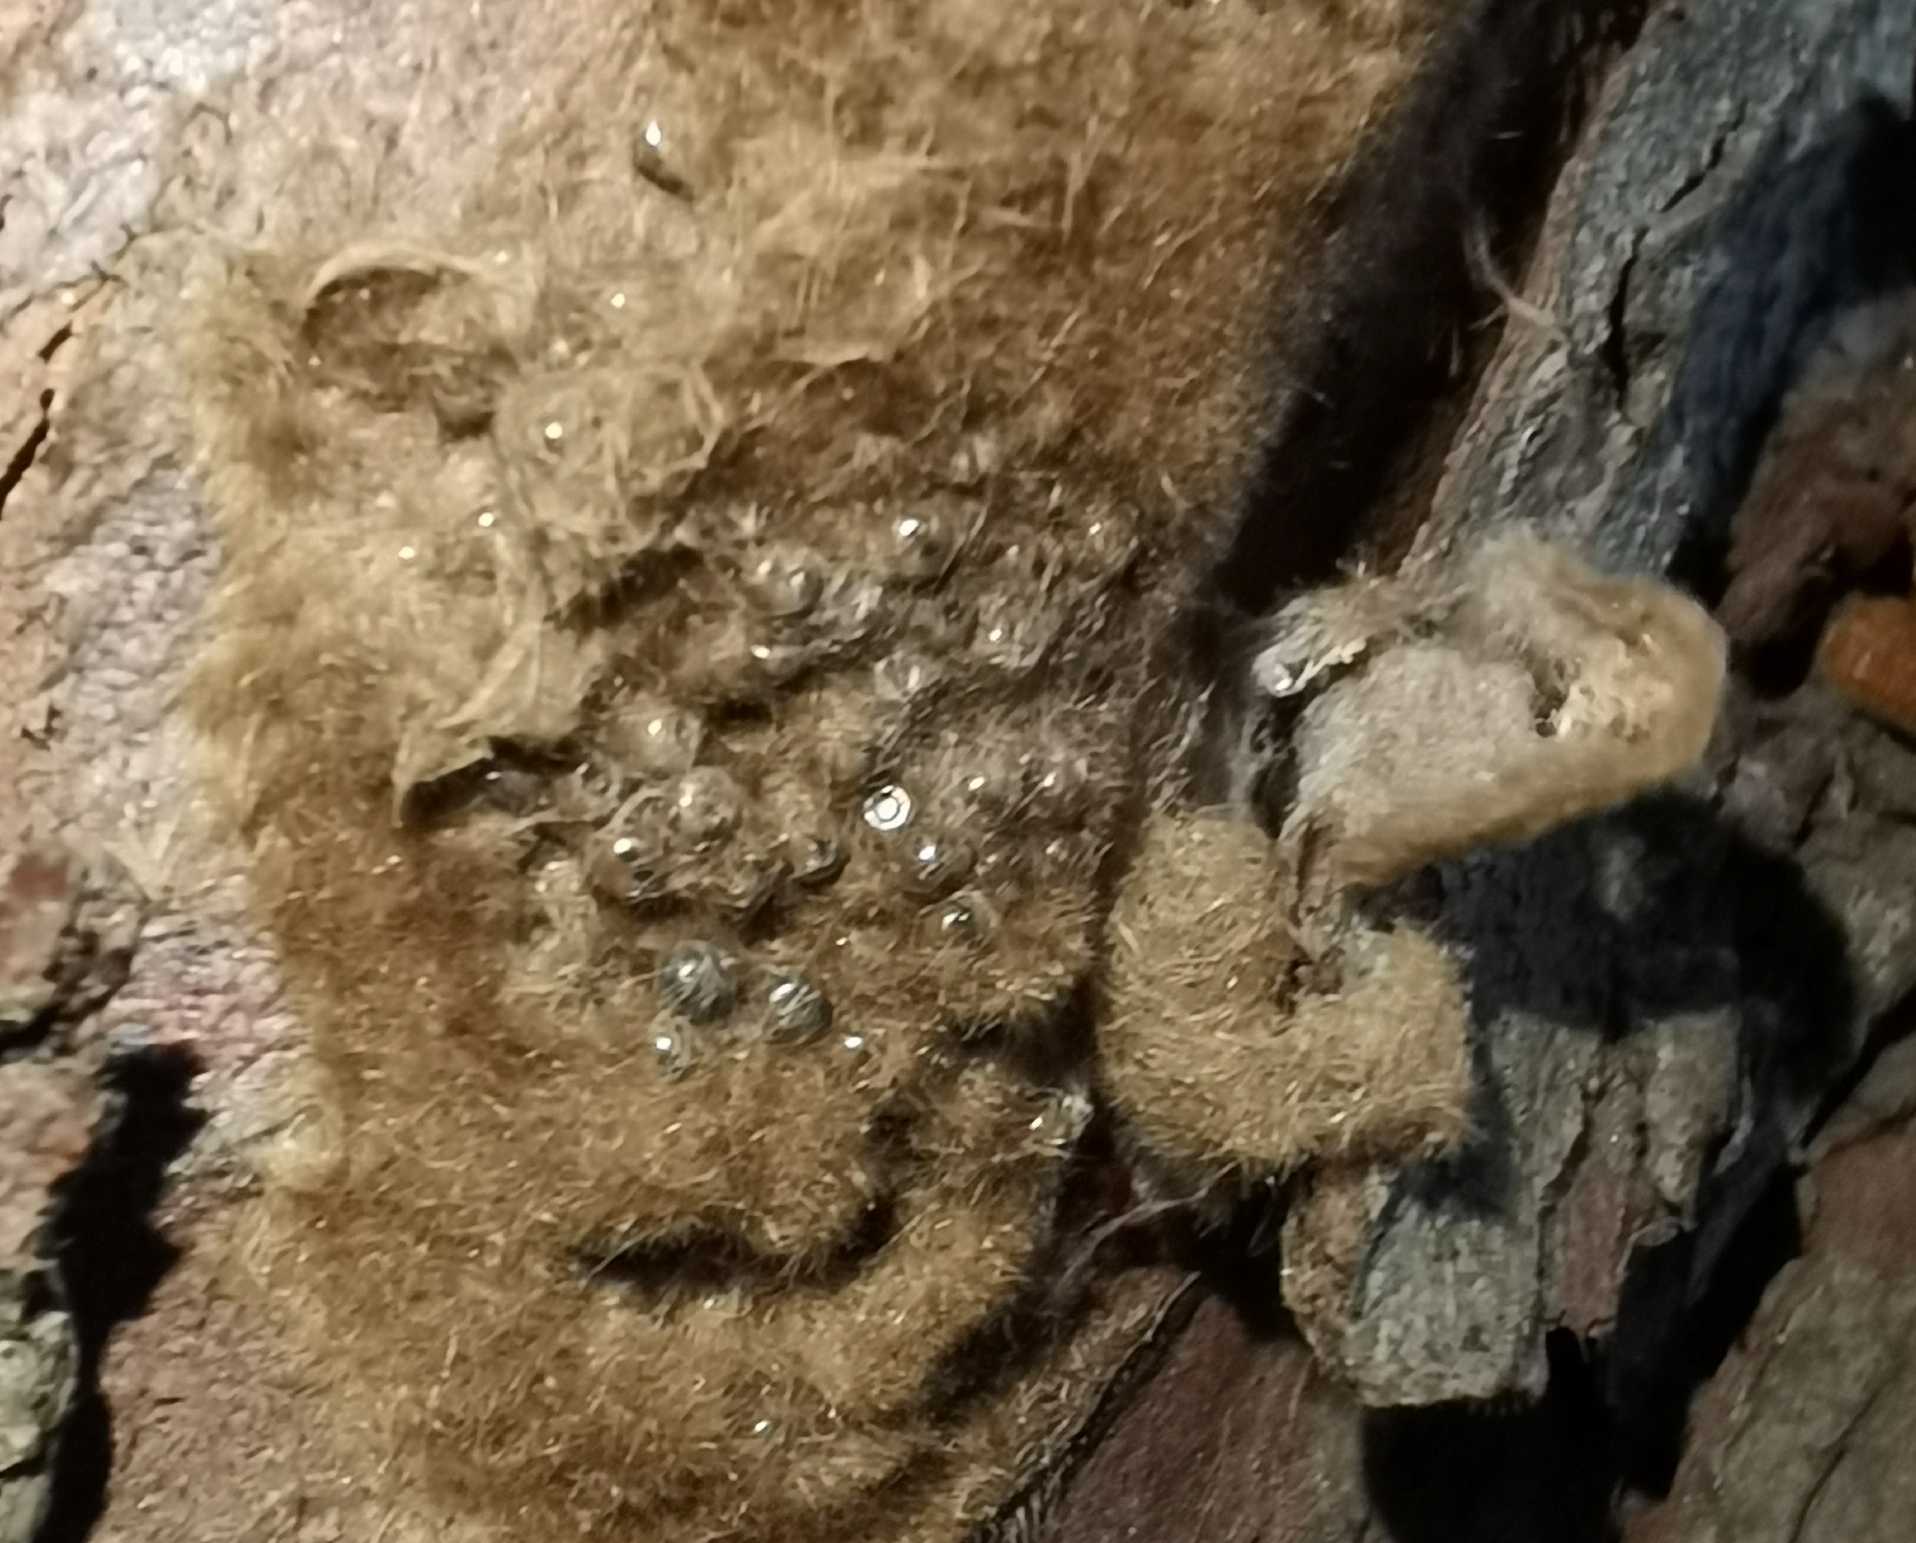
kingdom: Animalia
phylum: Arthropoda
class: Insecta
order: Lepidoptera
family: Erebidae
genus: Lymantria
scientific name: Lymantria dispar
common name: Gypsy moth
